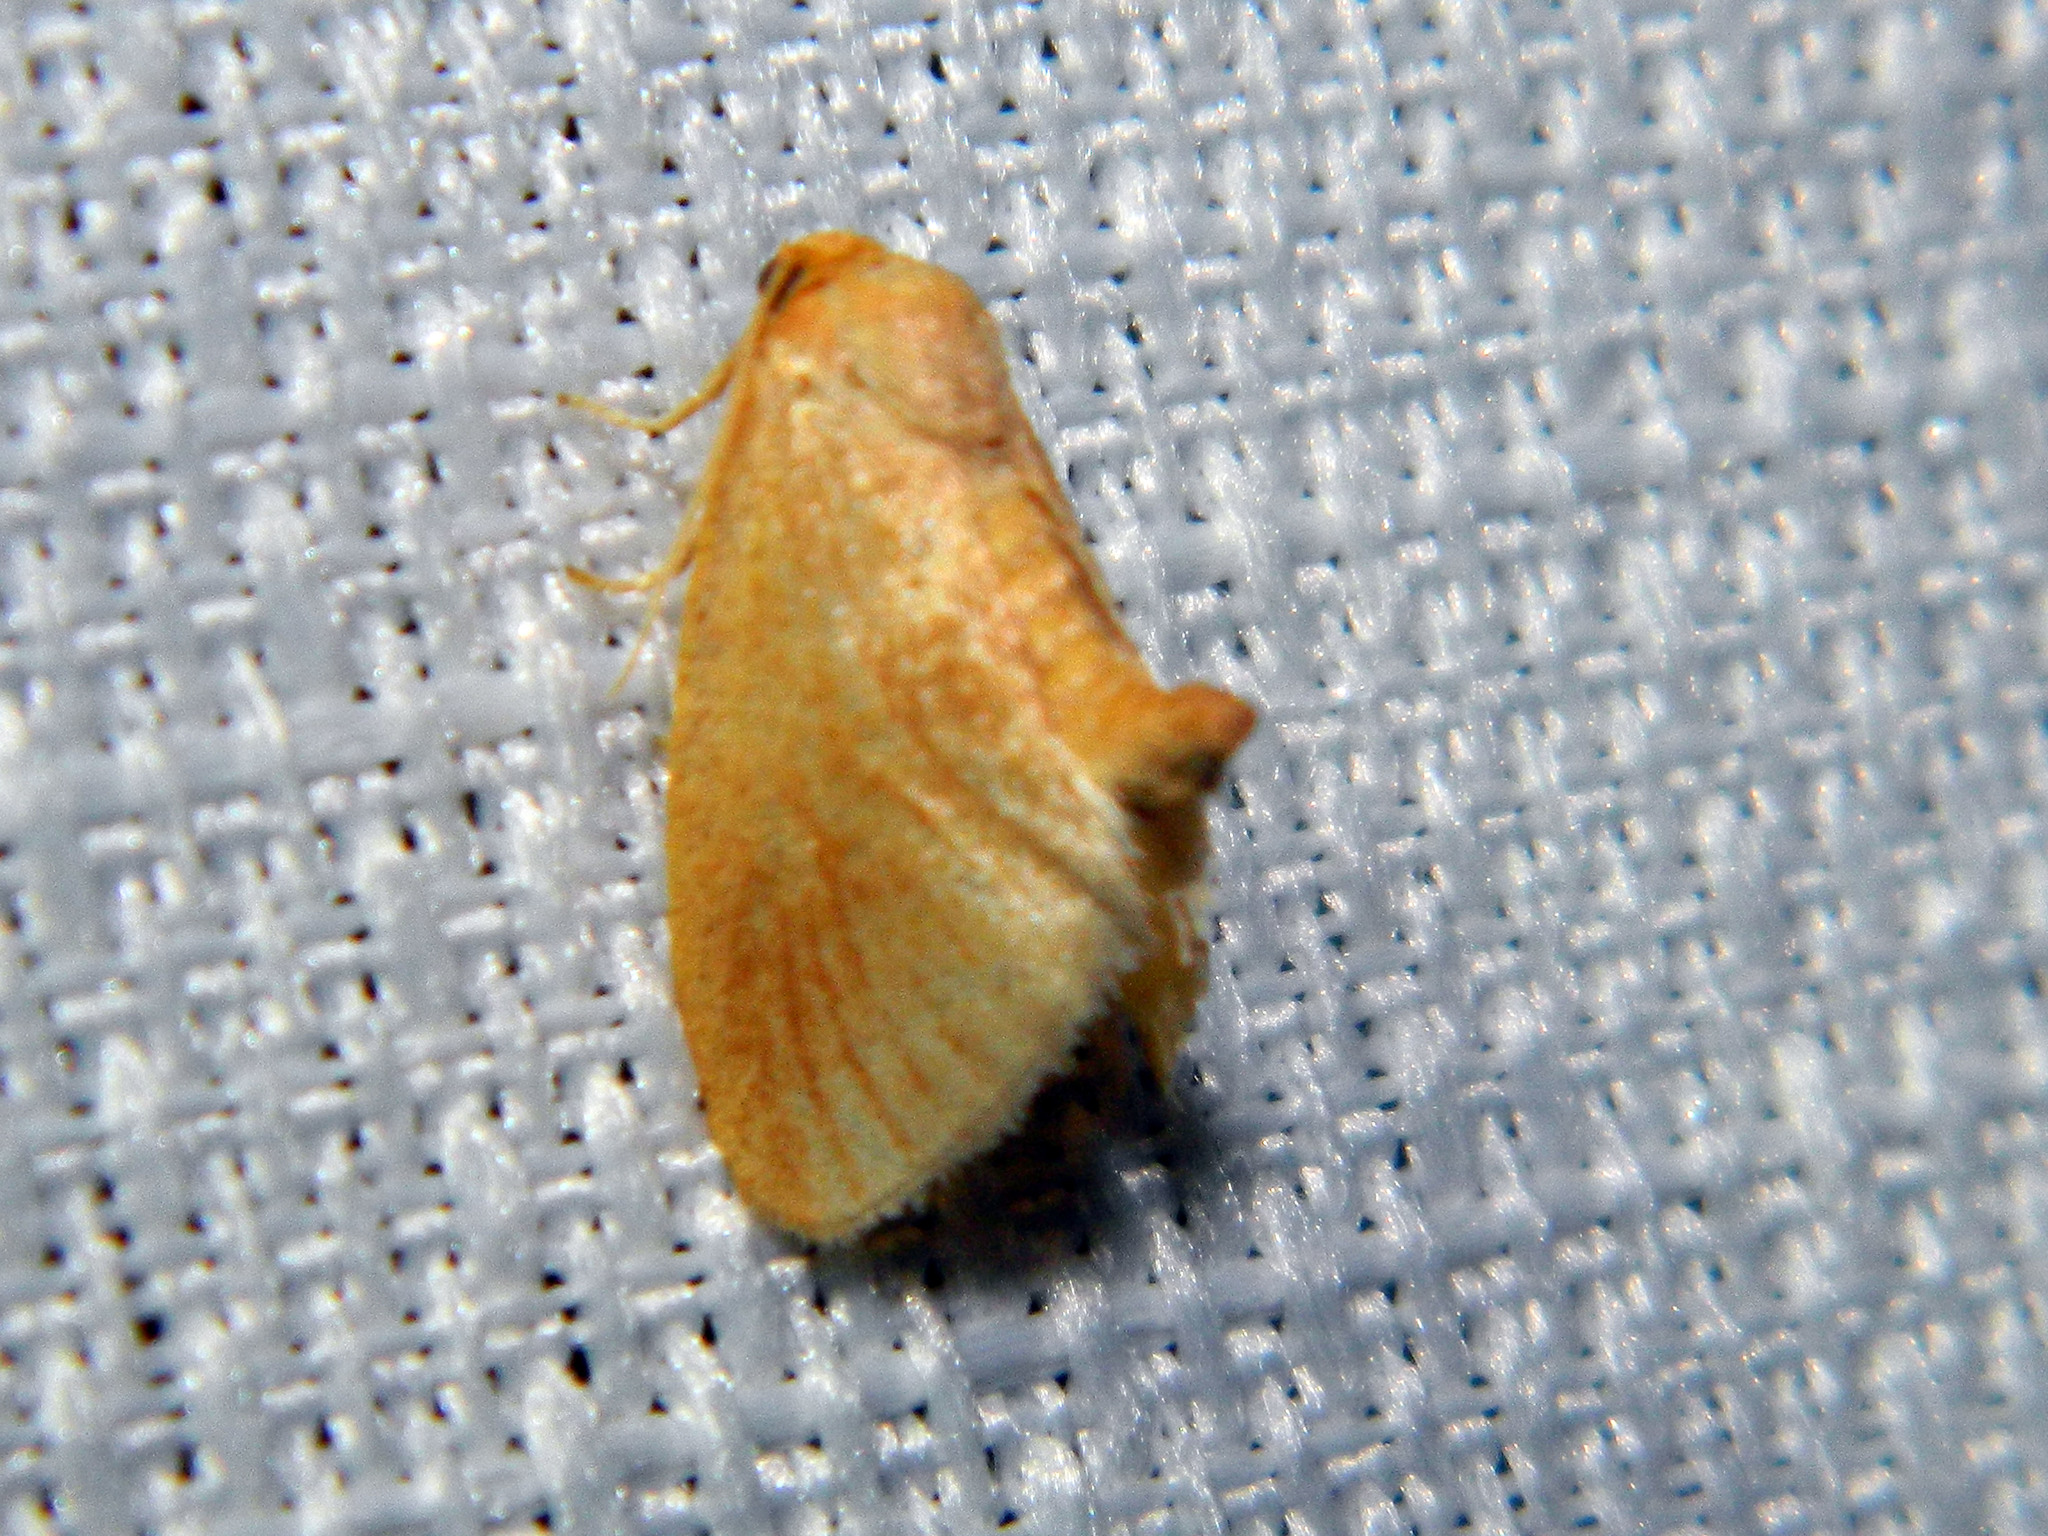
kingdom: Animalia
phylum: Arthropoda
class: Insecta
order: Lepidoptera
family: Limacodidae
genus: Tortricidia
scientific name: Tortricidia testacea
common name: Early button slug moth
